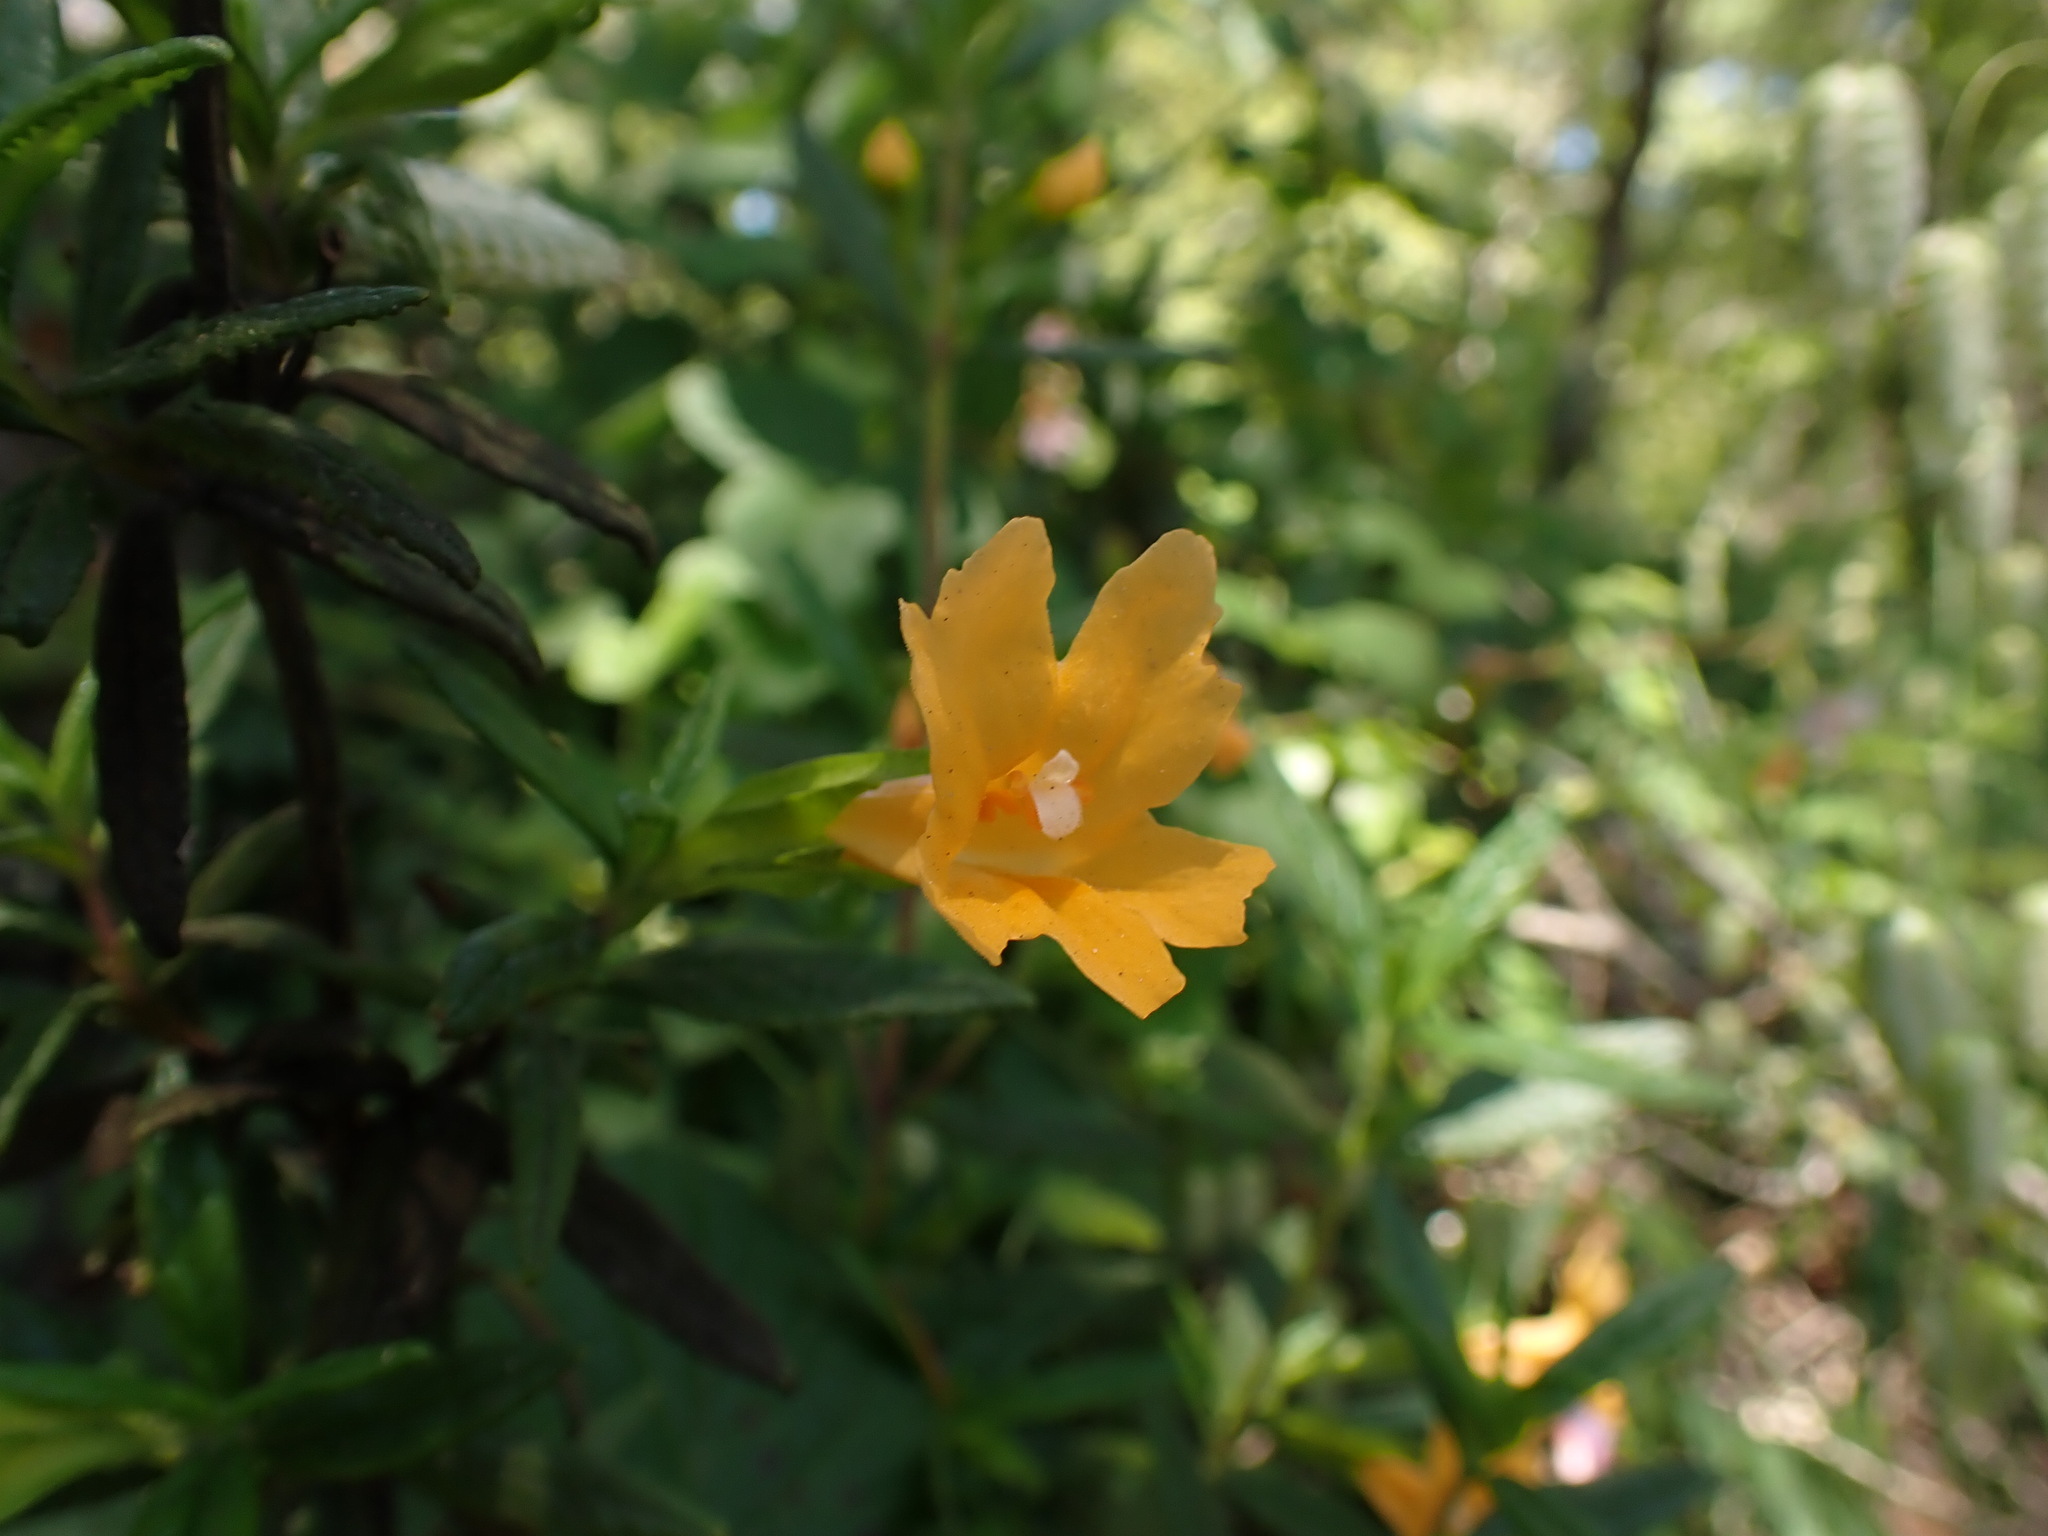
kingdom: Plantae
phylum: Tracheophyta
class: Magnoliopsida
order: Lamiales
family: Phrymaceae
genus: Diplacus
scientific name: Diplacus aurantiacus
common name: Bush monkey-flower
